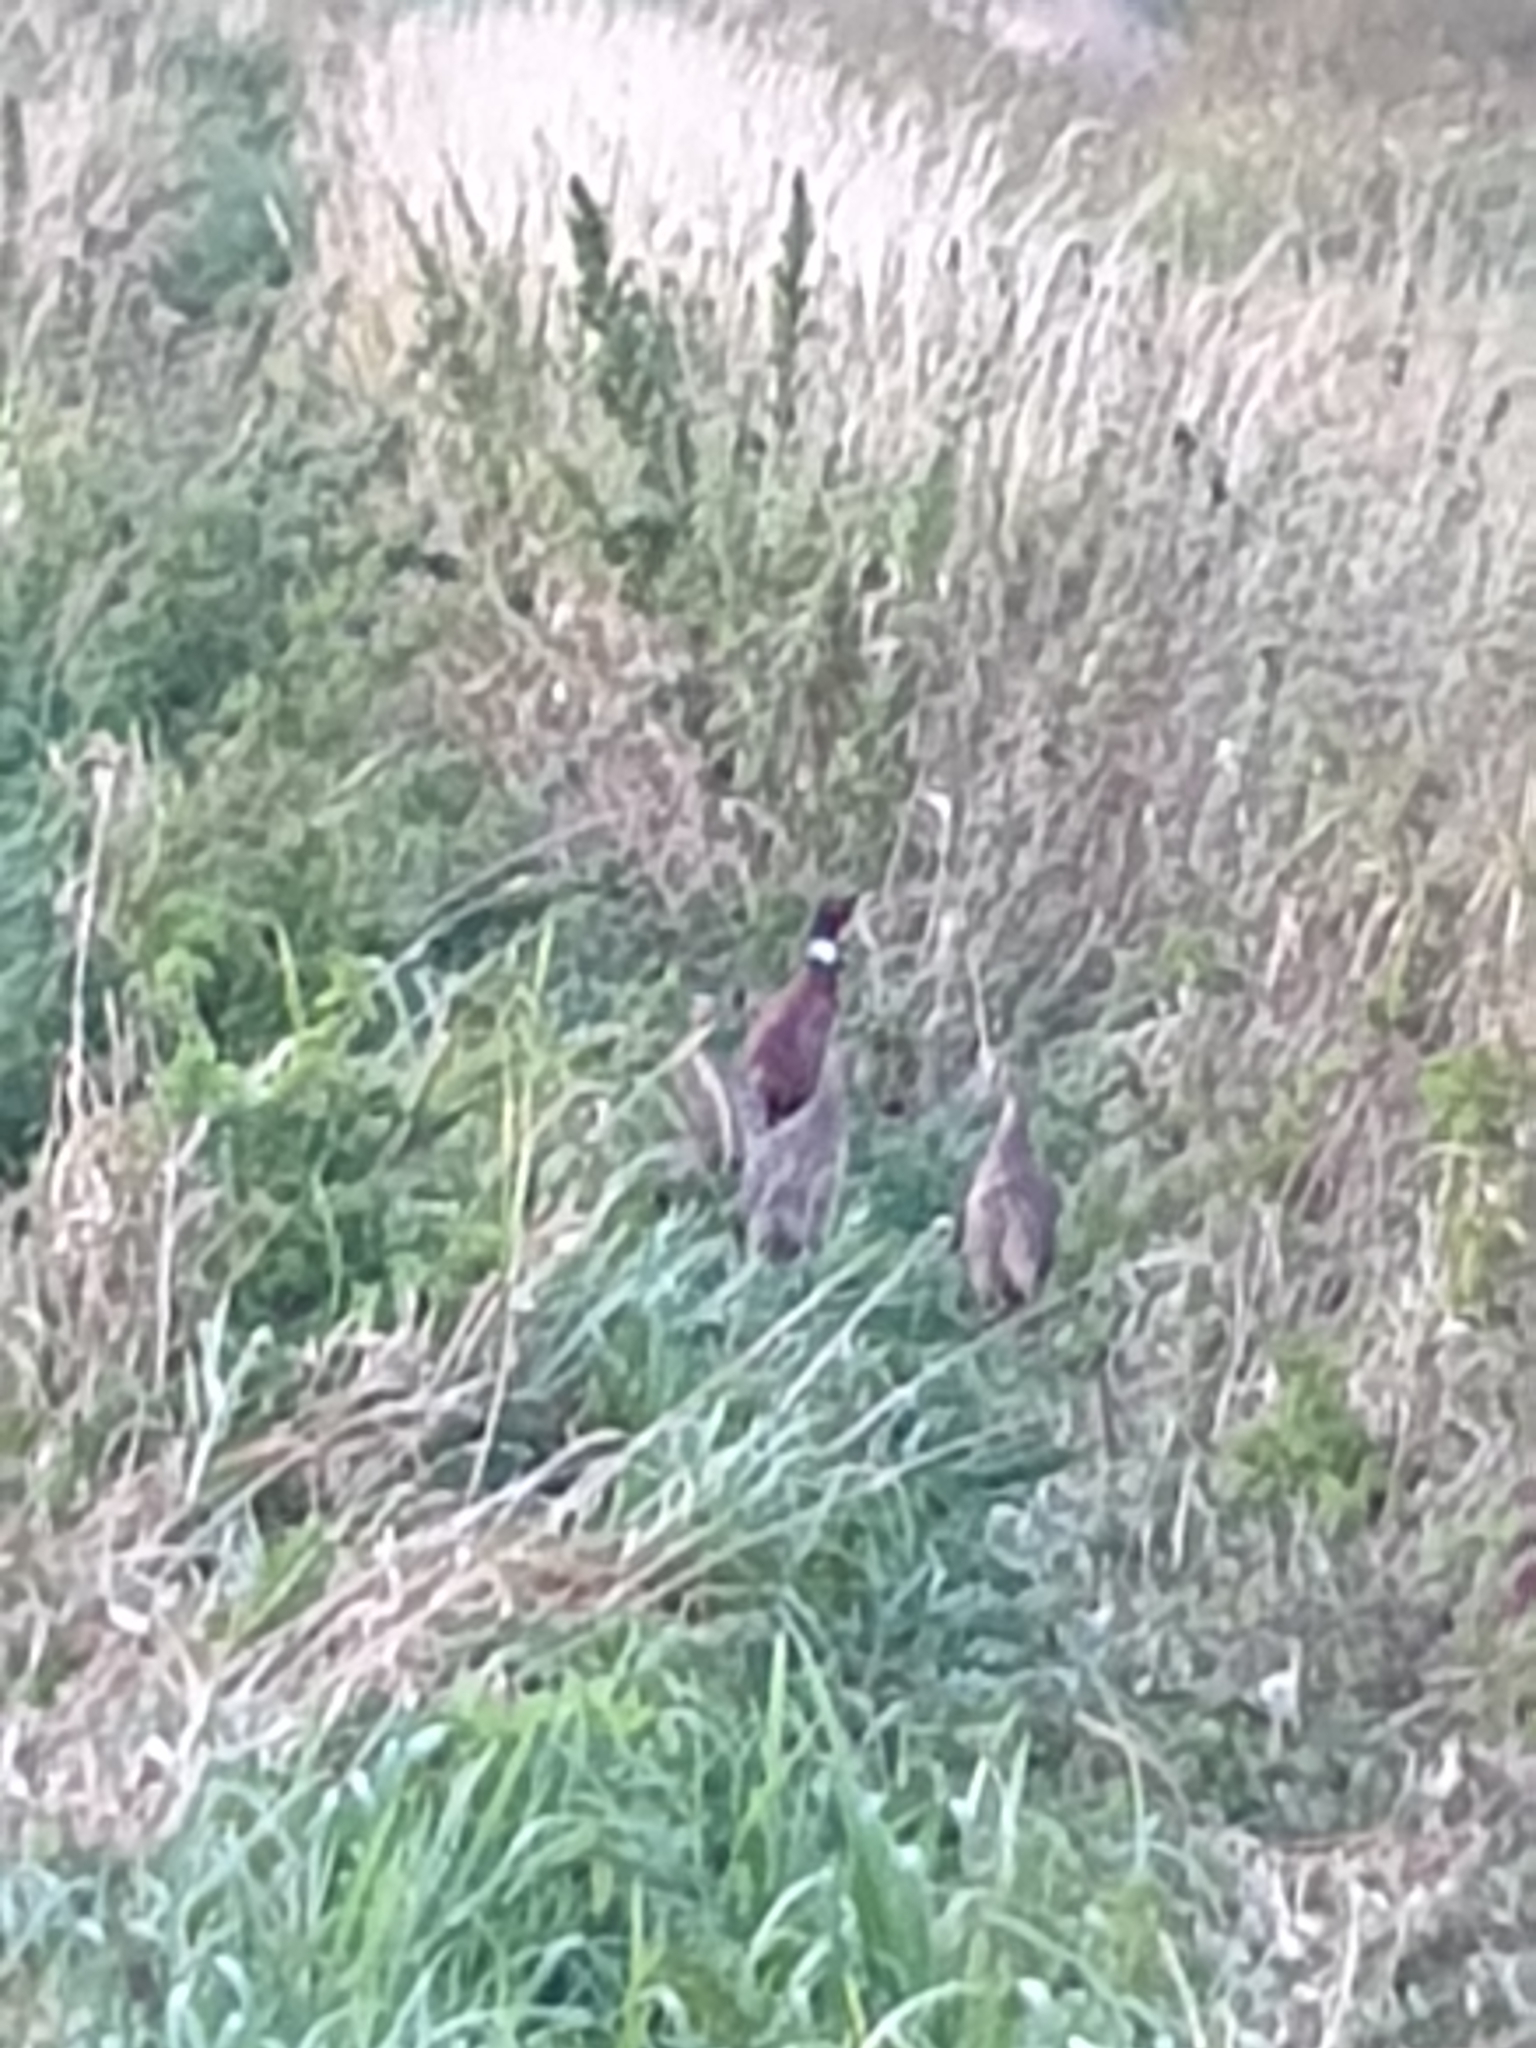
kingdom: Animalia
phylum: Chordata
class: Aves
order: Galliformes
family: Phasianidae
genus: Phasianus
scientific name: Phasianus colchicus
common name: Common pheasant
